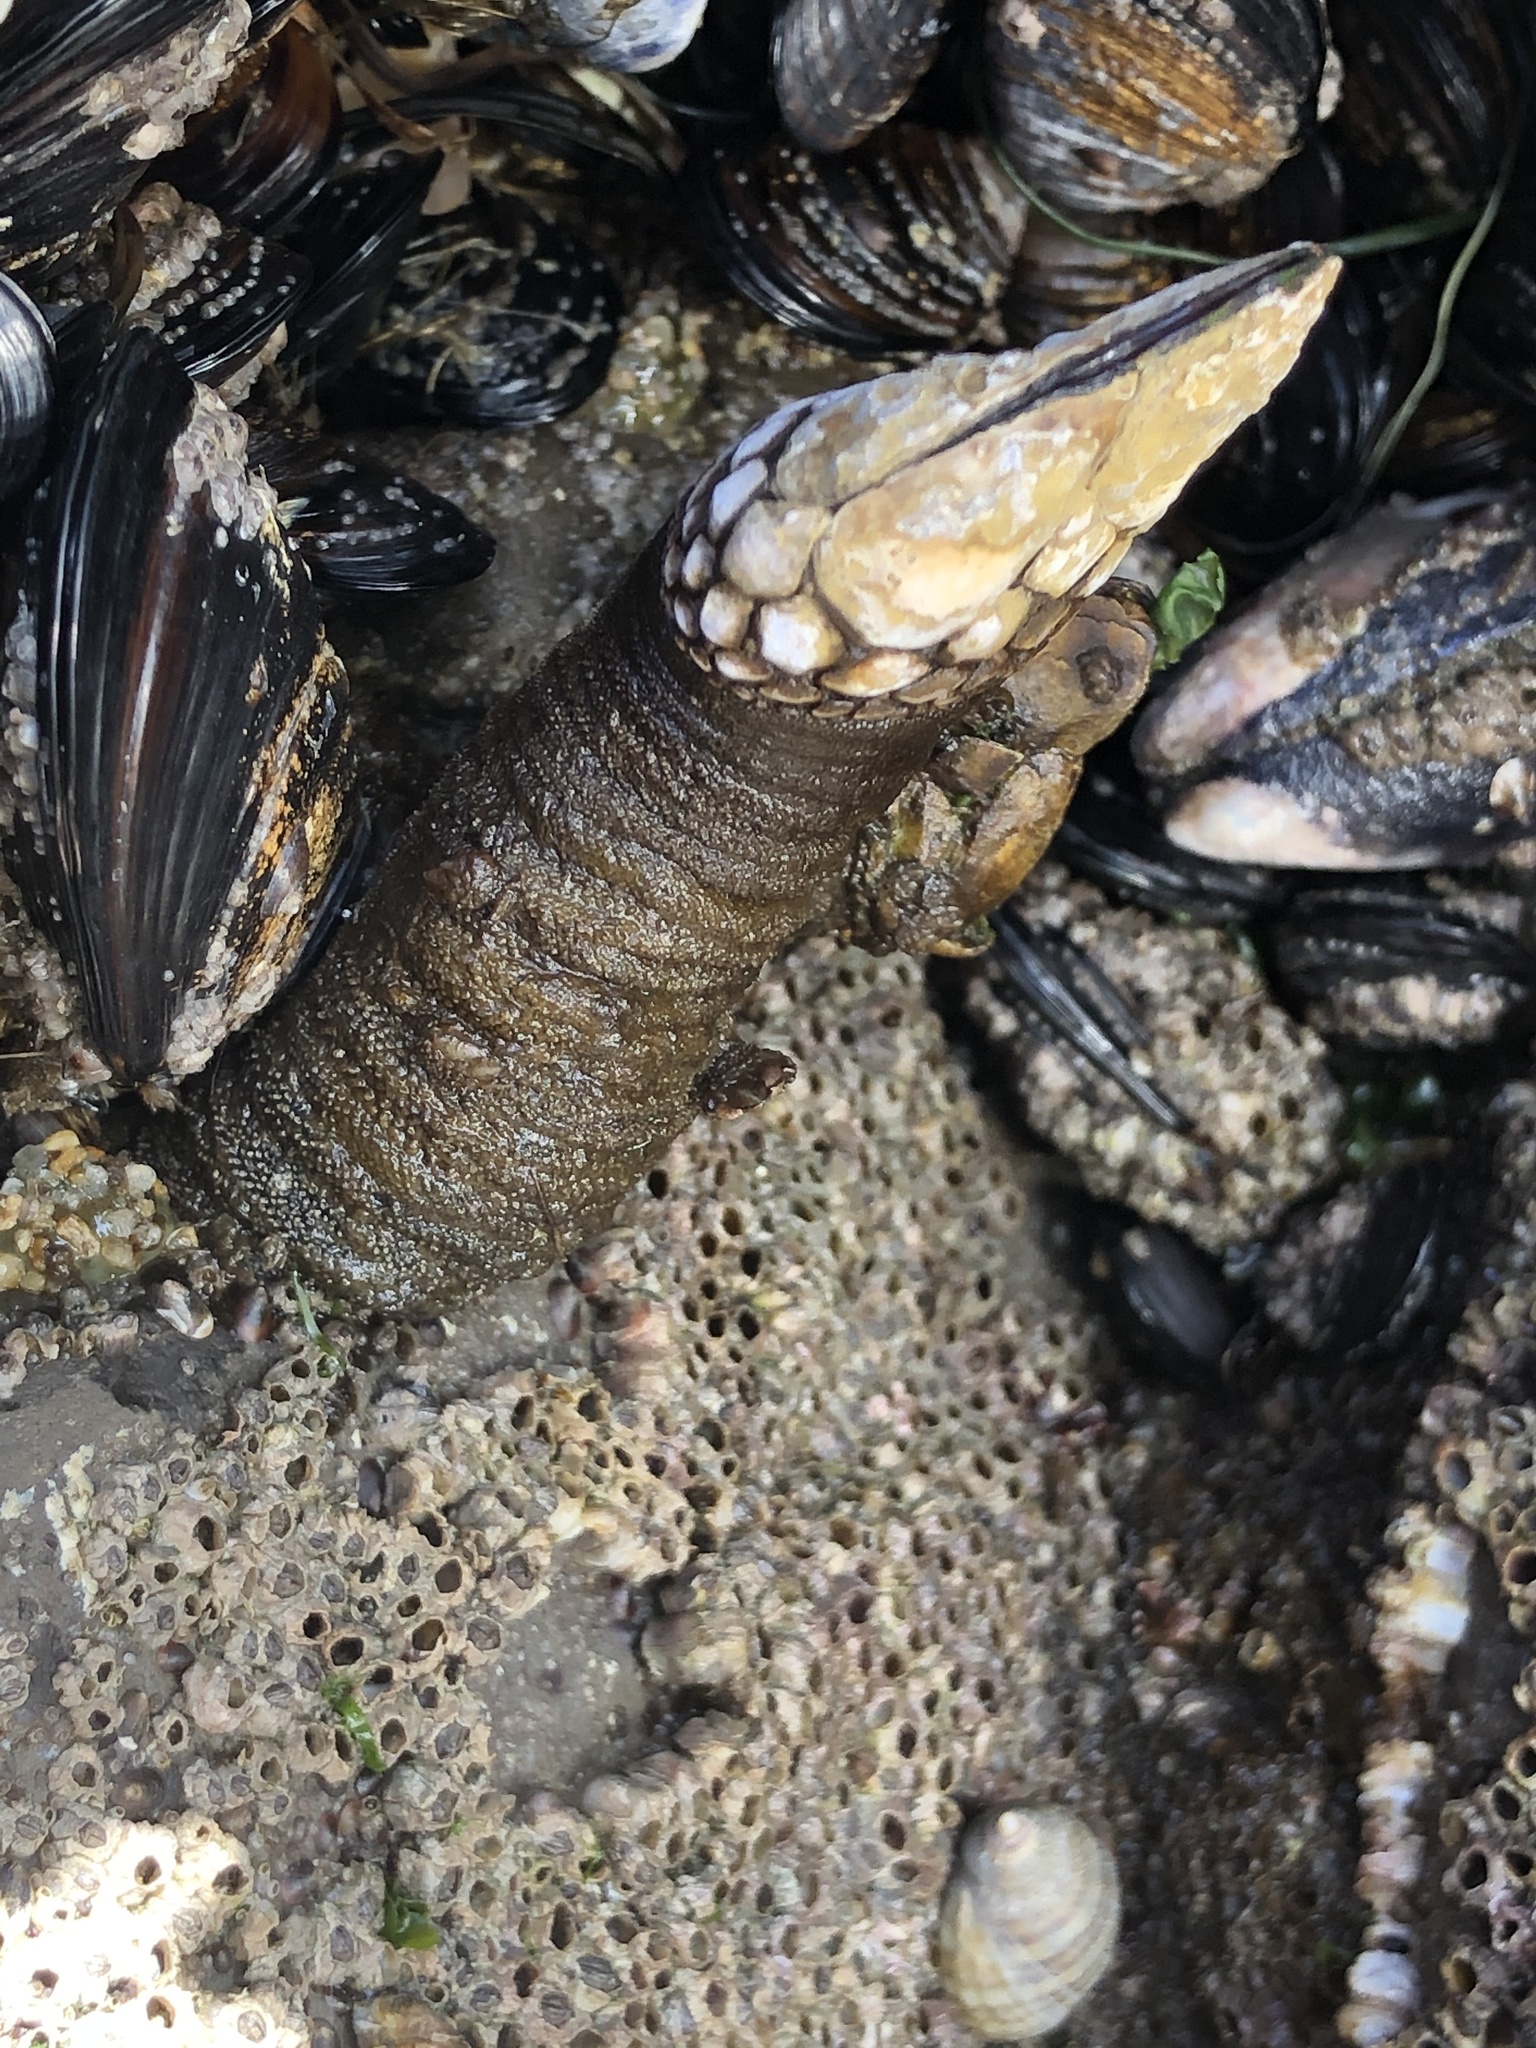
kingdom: Animalia
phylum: Arthropoda
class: Maxillopoda
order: Pedunculata
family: Pollicipedidae
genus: Pollicipes
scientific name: Pollicipes polymerus
